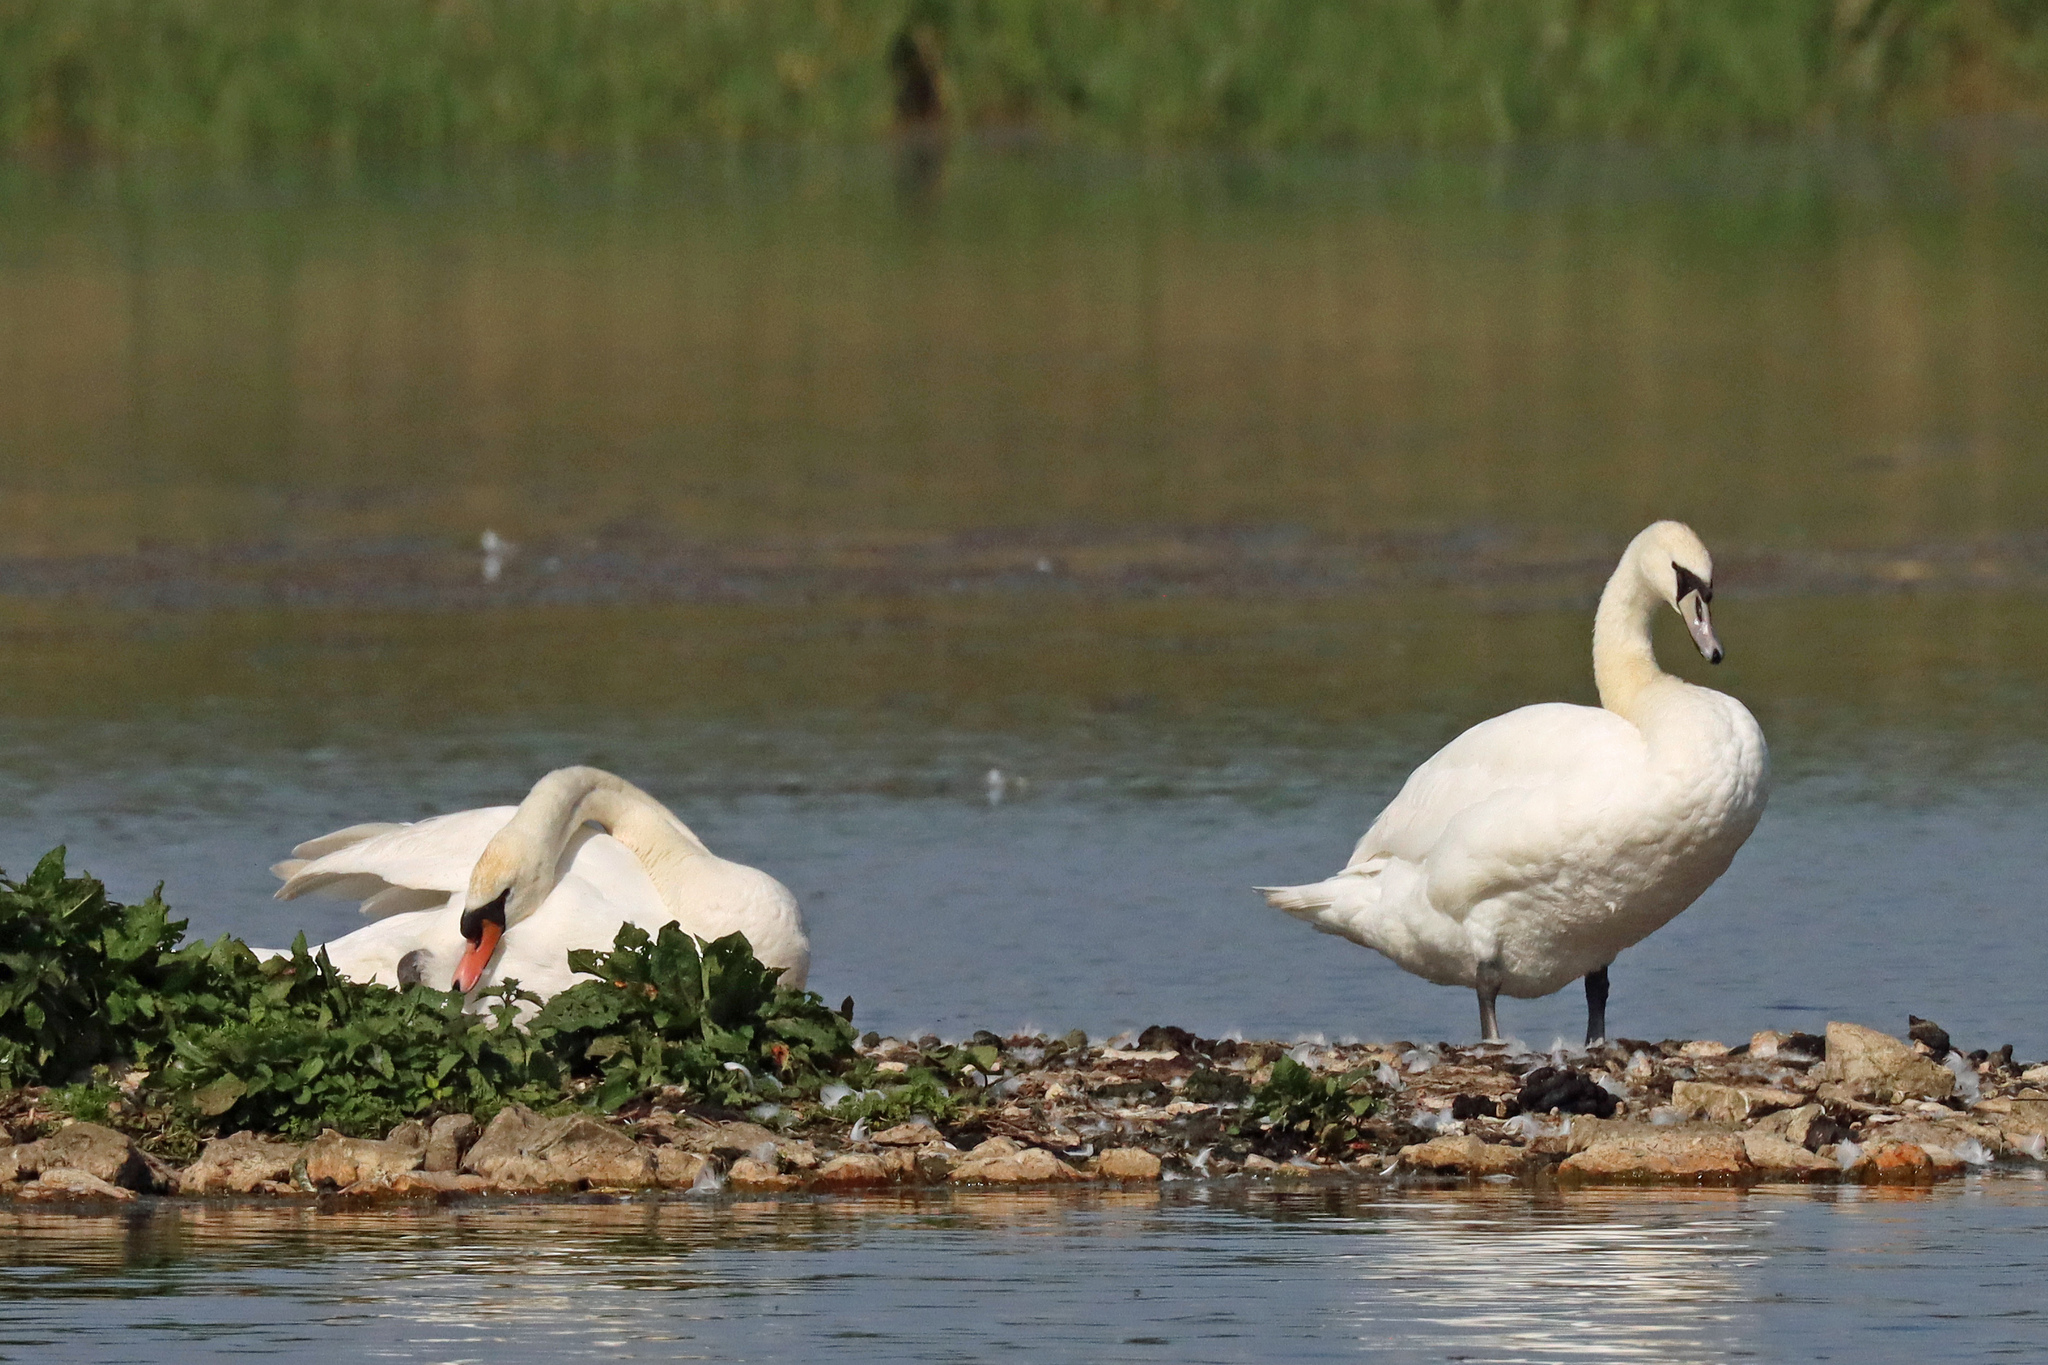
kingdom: Animalia
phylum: Chordata
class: Aves
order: Anseriformes
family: Anatidae
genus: Cygnus
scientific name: Cygnus olor
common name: Mute swan
